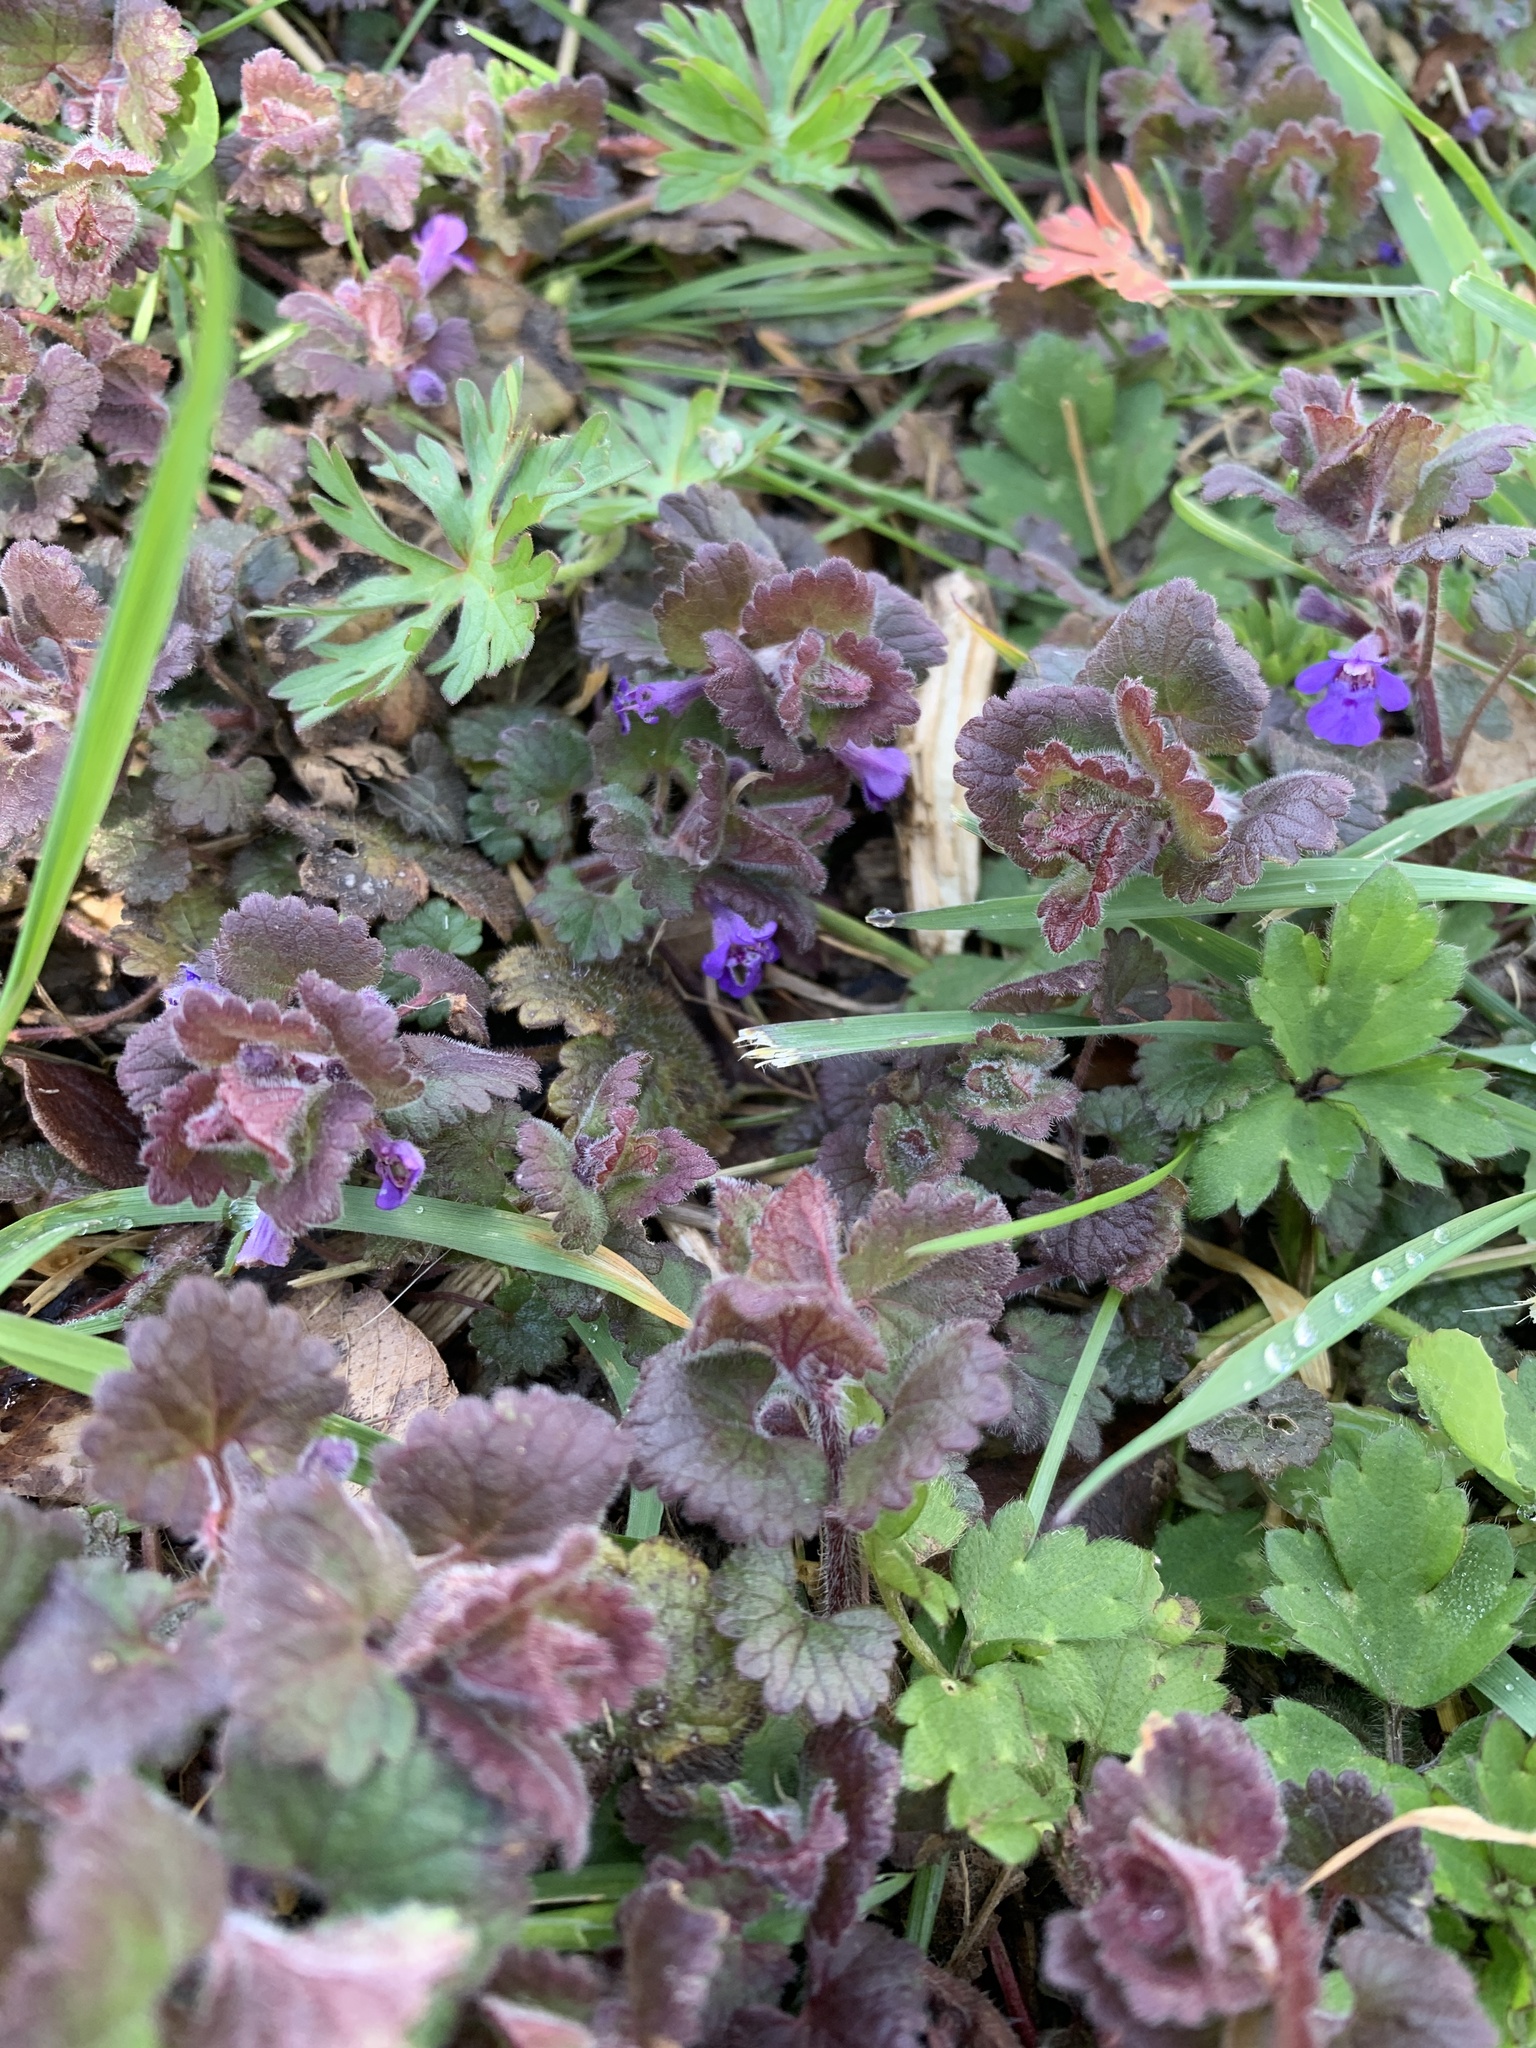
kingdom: Plantae
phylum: Tracheophyta
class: Magnoliopsida
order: Lamiales
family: Lamiaceae
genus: Glechoma
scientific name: Glechoma hederacea
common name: Ground ivy
